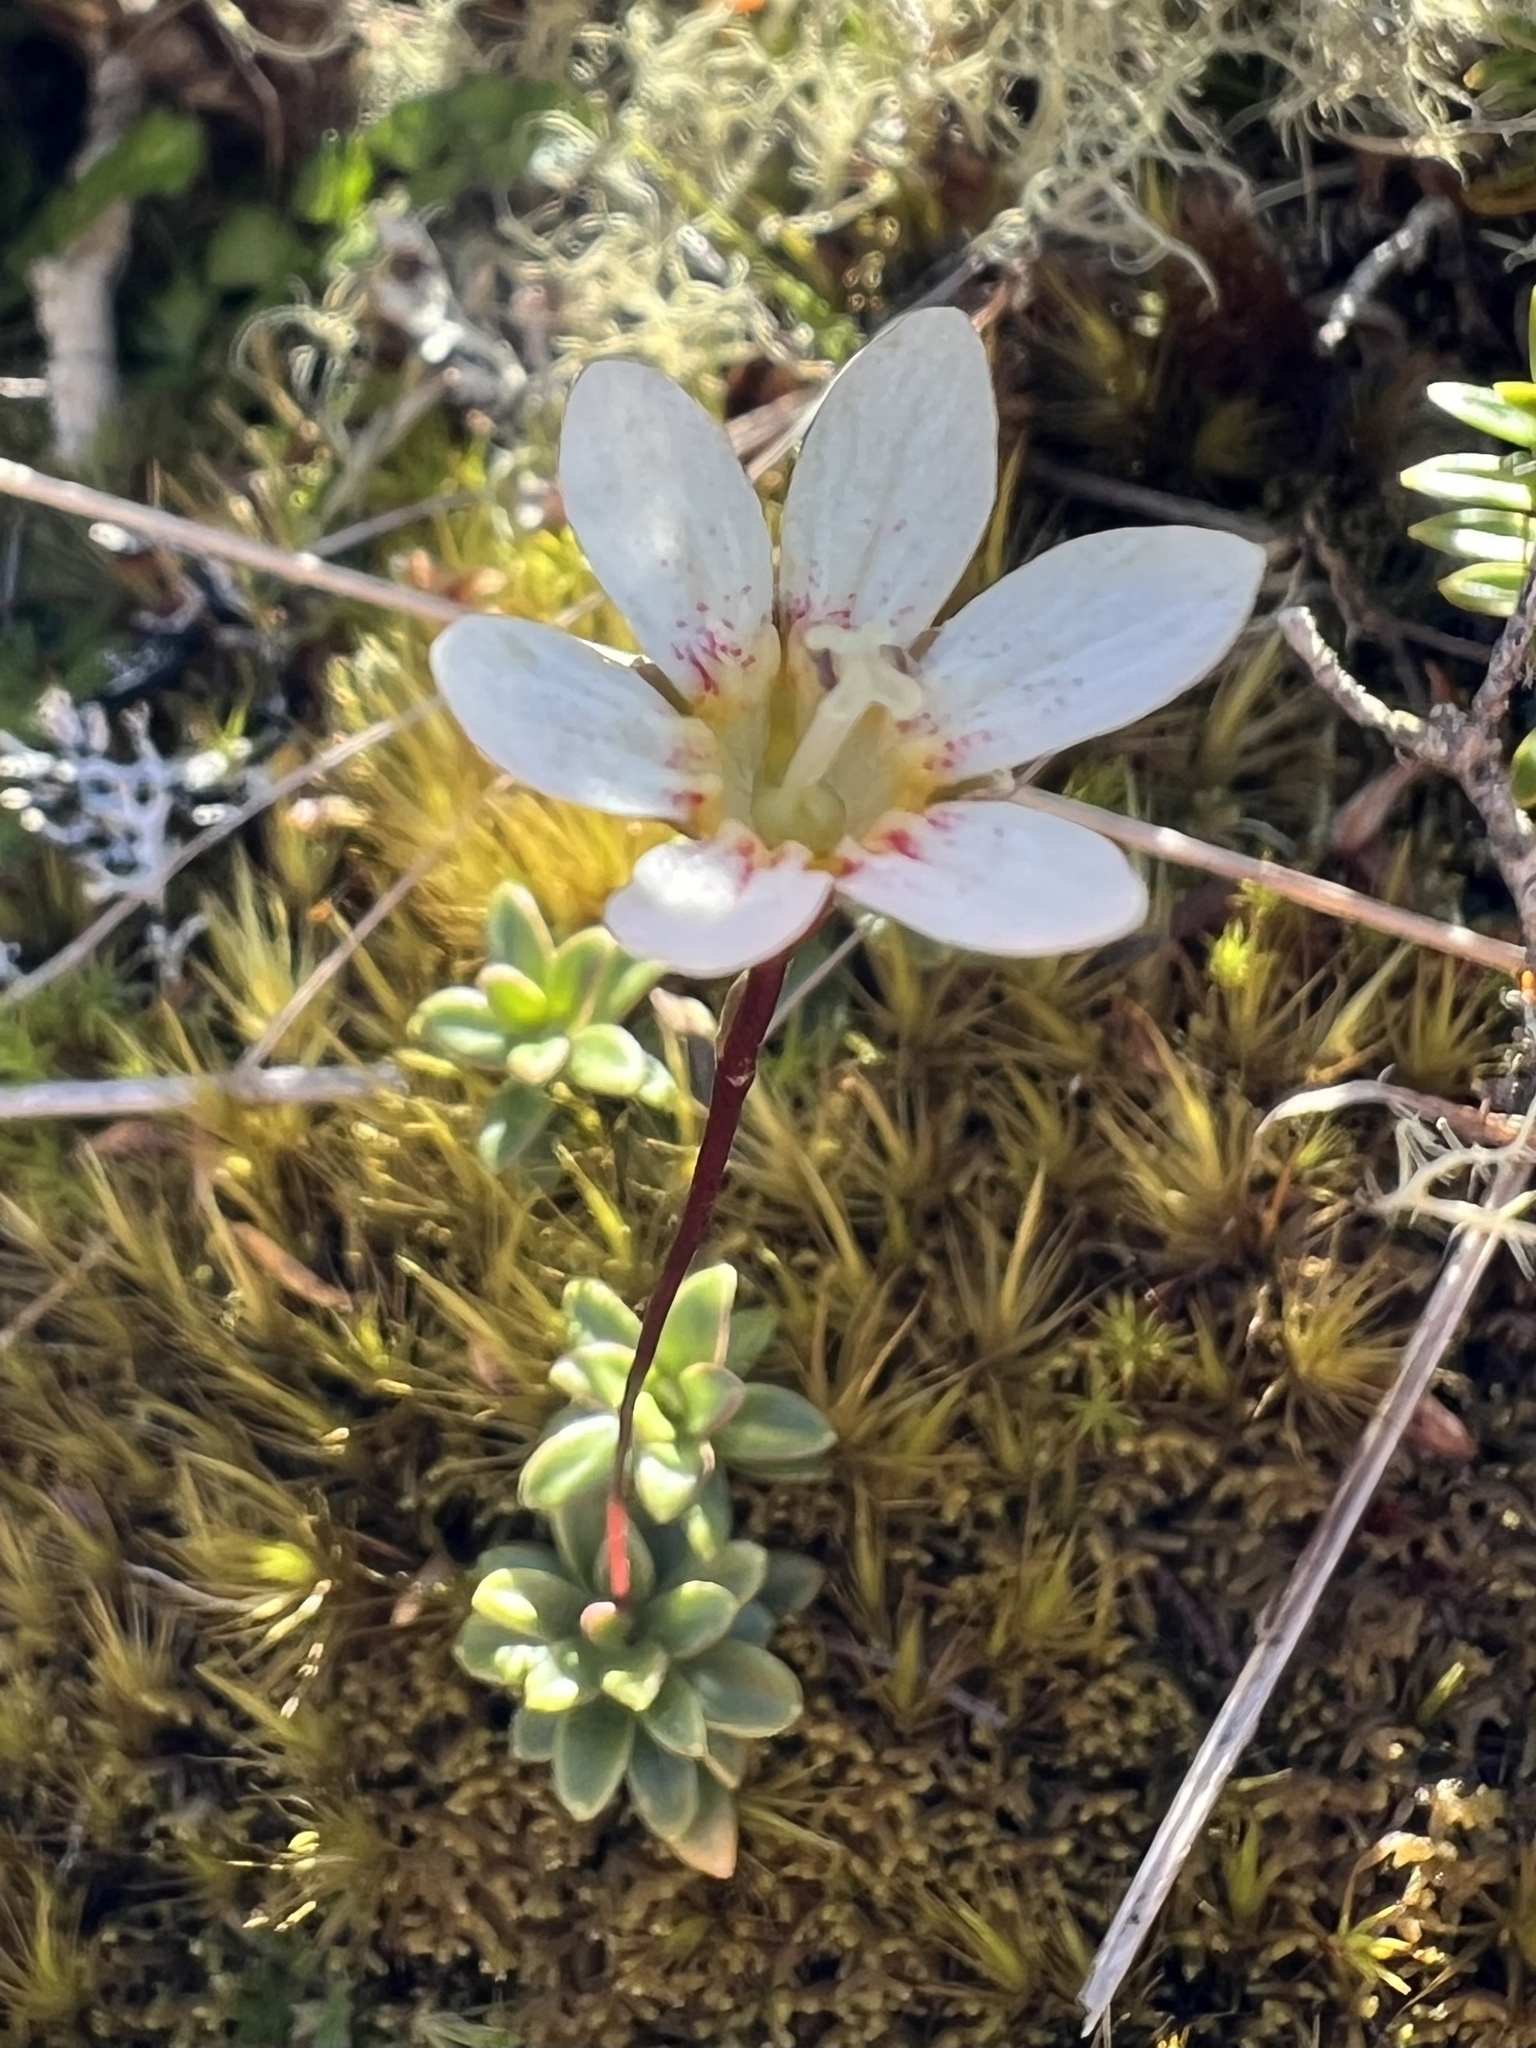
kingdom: Plantae
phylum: Tracheophyta
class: Magnoliopsida
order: Asterales
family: Stylidiaceae
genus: Forstera
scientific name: Forstera tenella
